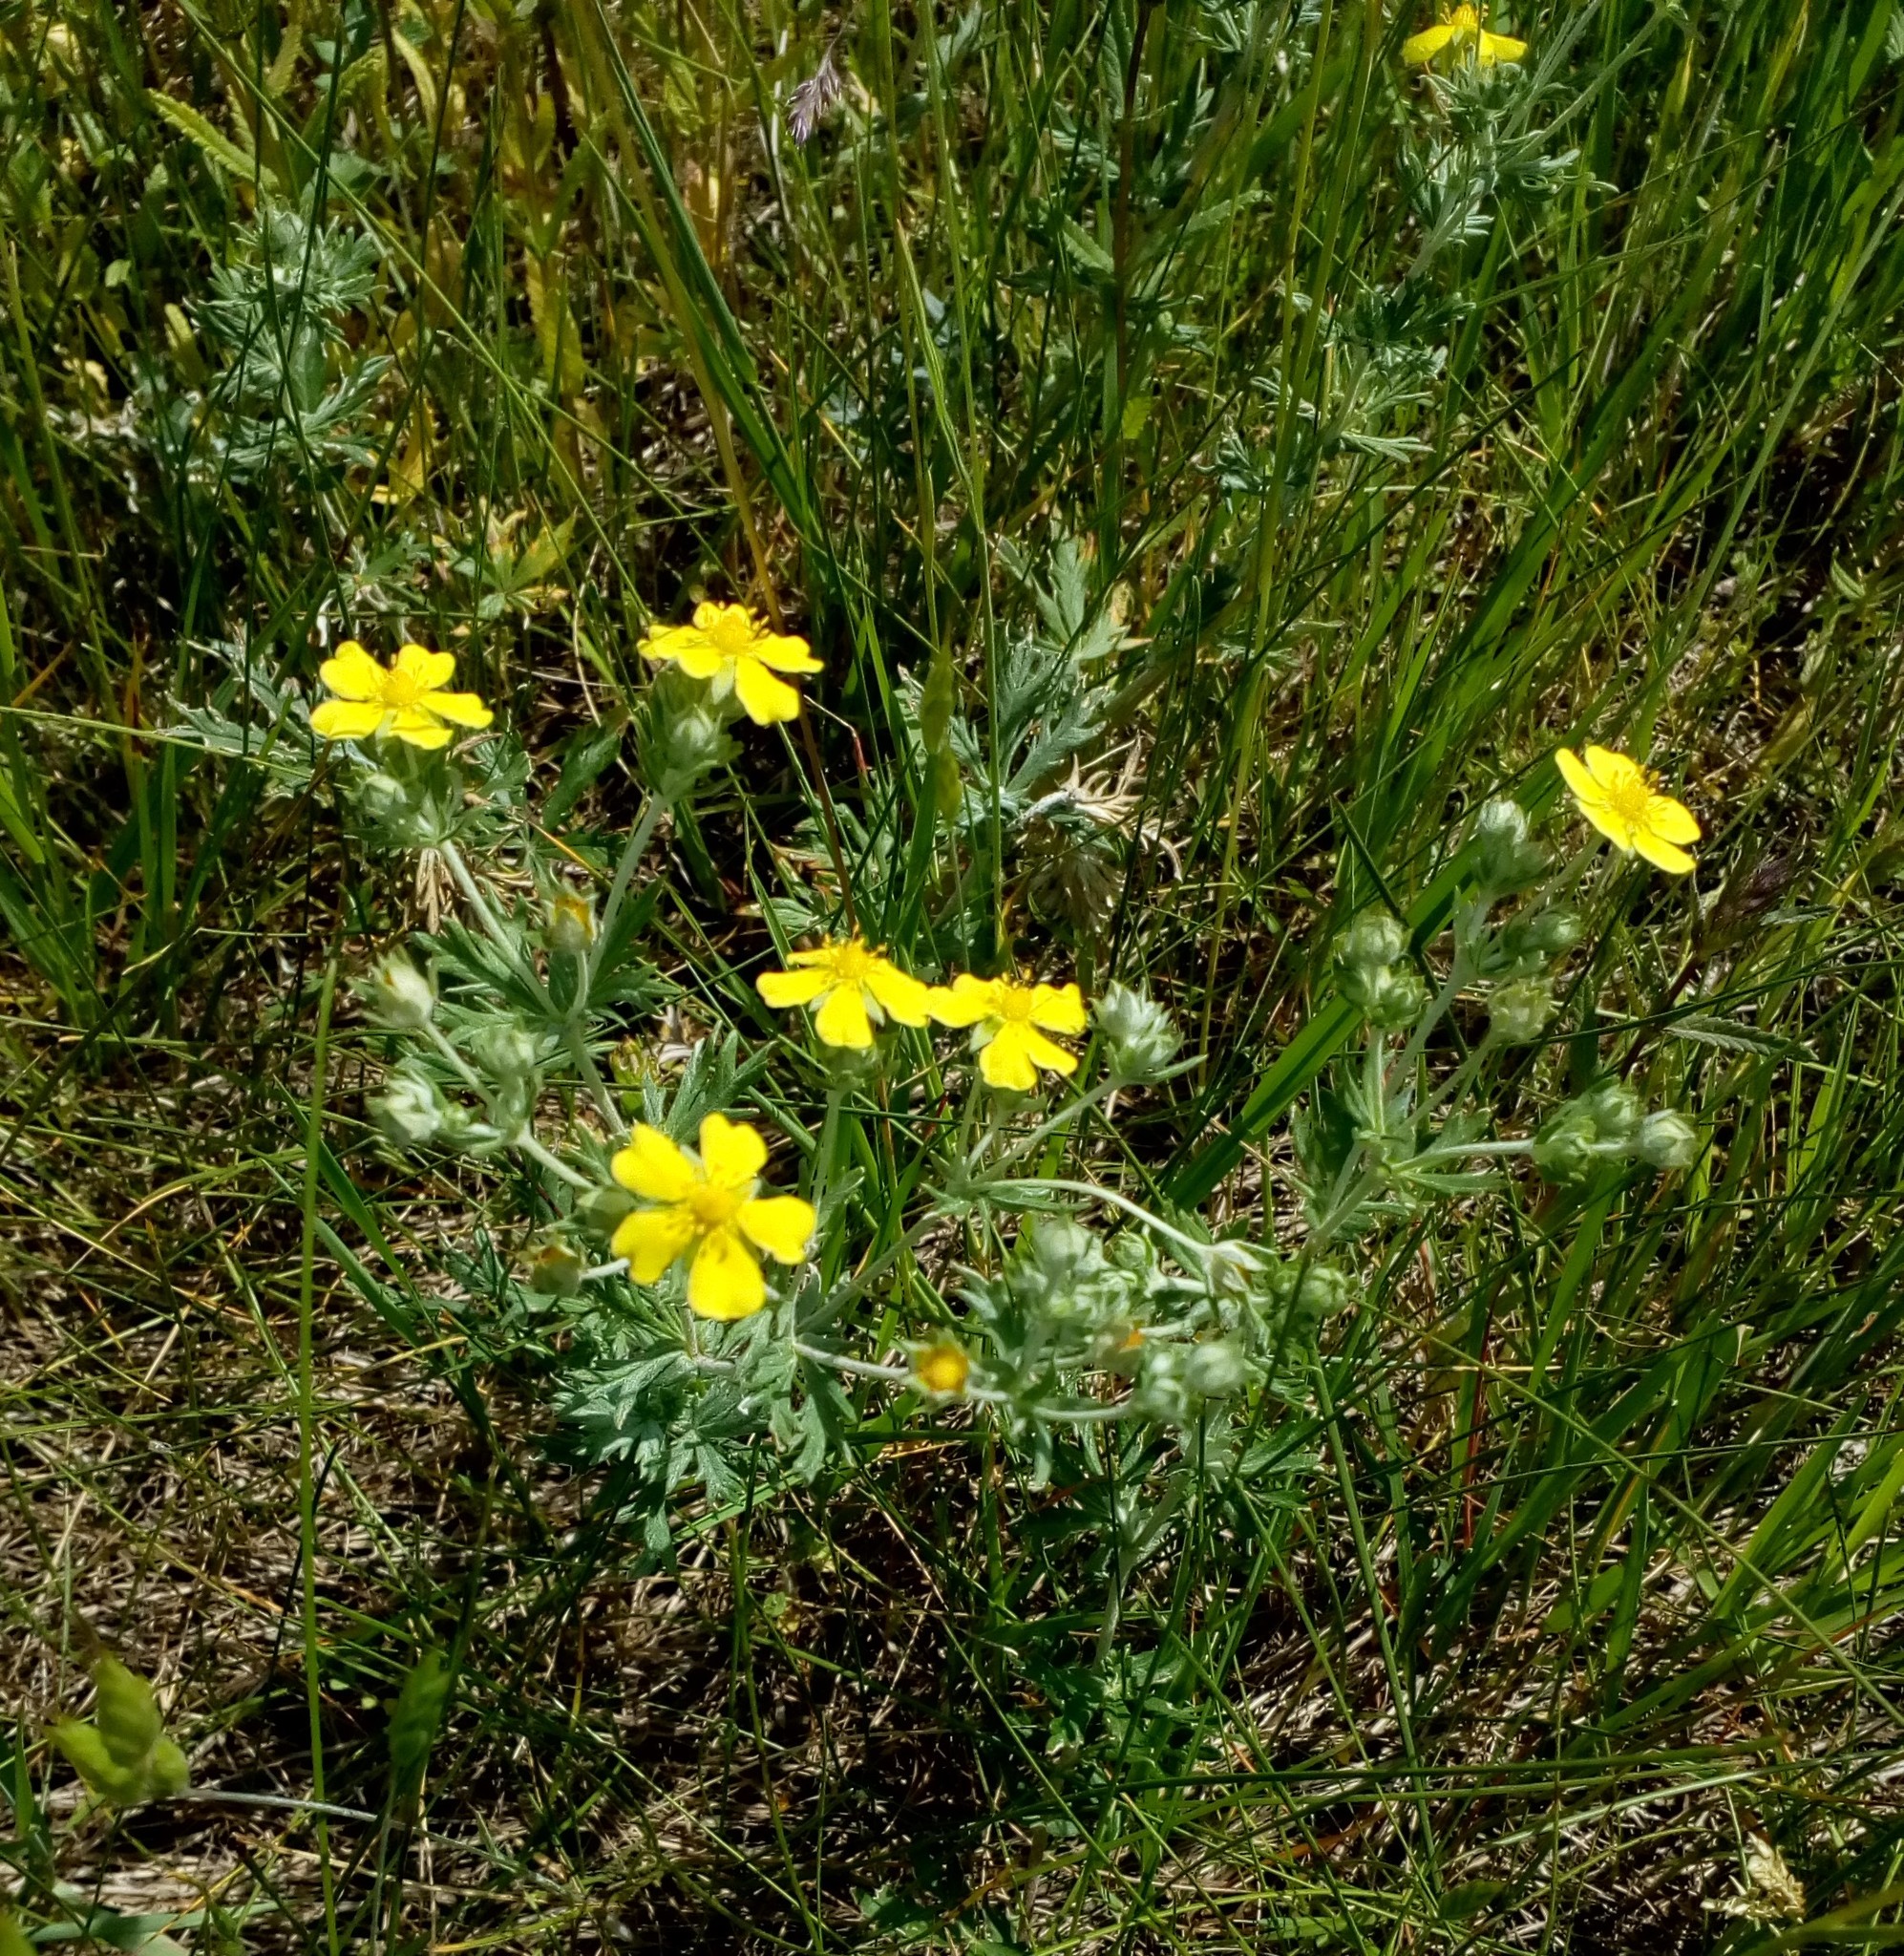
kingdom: Plantae
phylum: Tracheophyta
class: Magnoliopsida
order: Rosales
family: Rosaceae
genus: Potentilla
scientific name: Potentilla argentea
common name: Hoary cinquefoil
